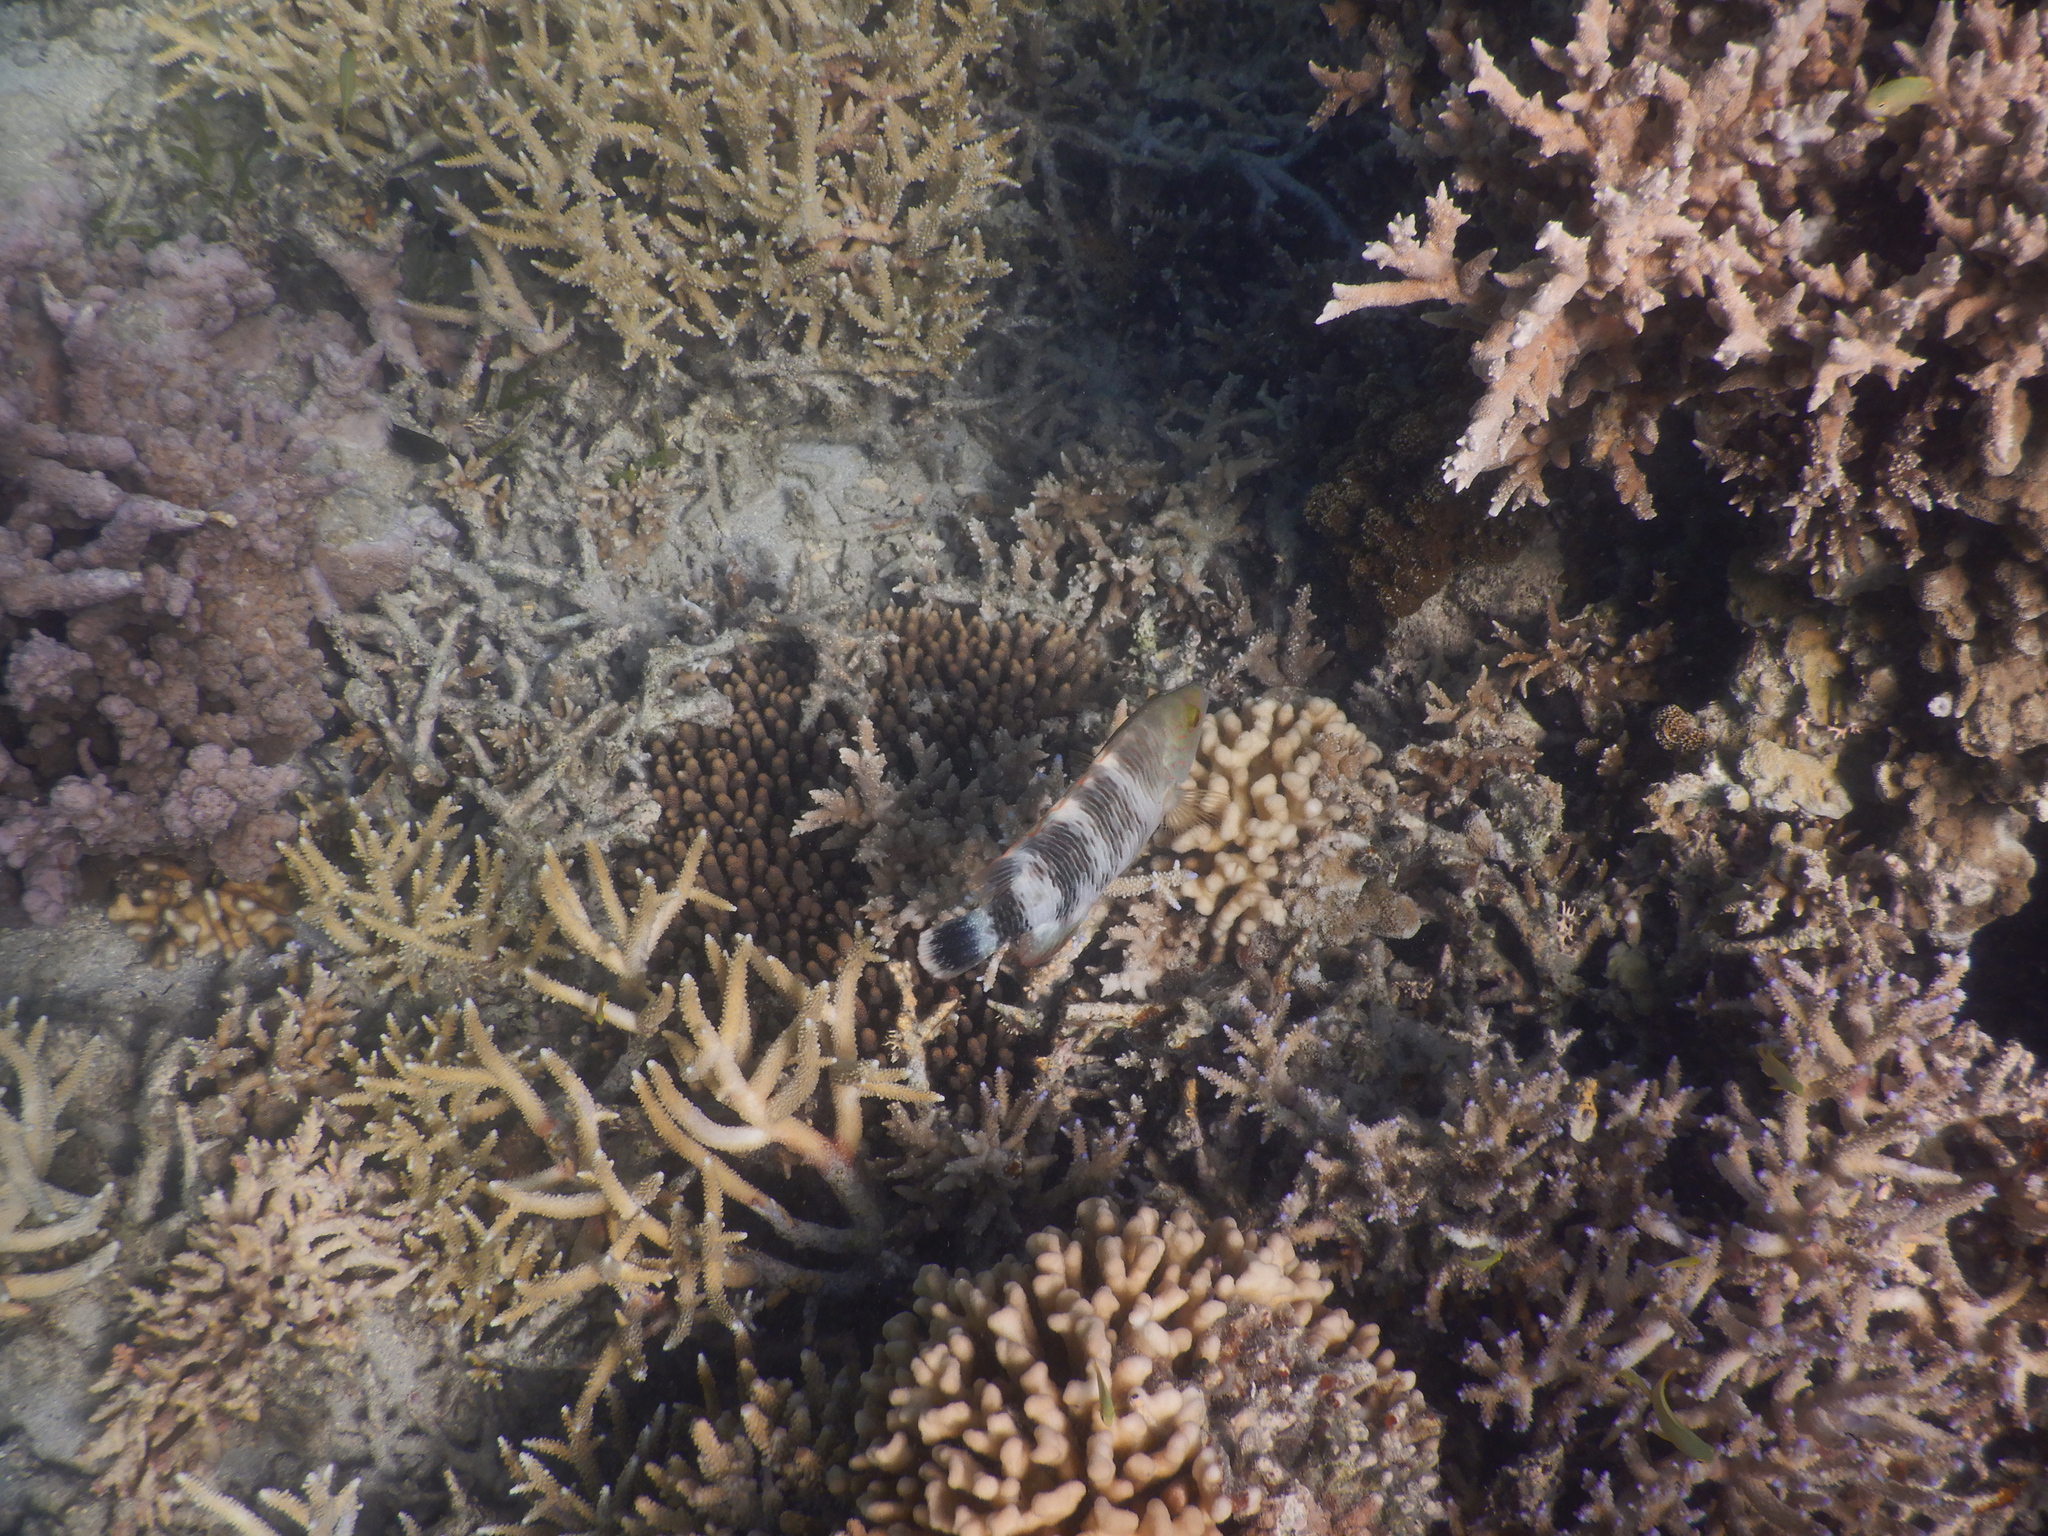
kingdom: Animalia
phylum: Chordata
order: Perciformes
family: Labridae
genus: Cheilinus
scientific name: Cheilinus trilobatus
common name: Tripletail maori wrasse
